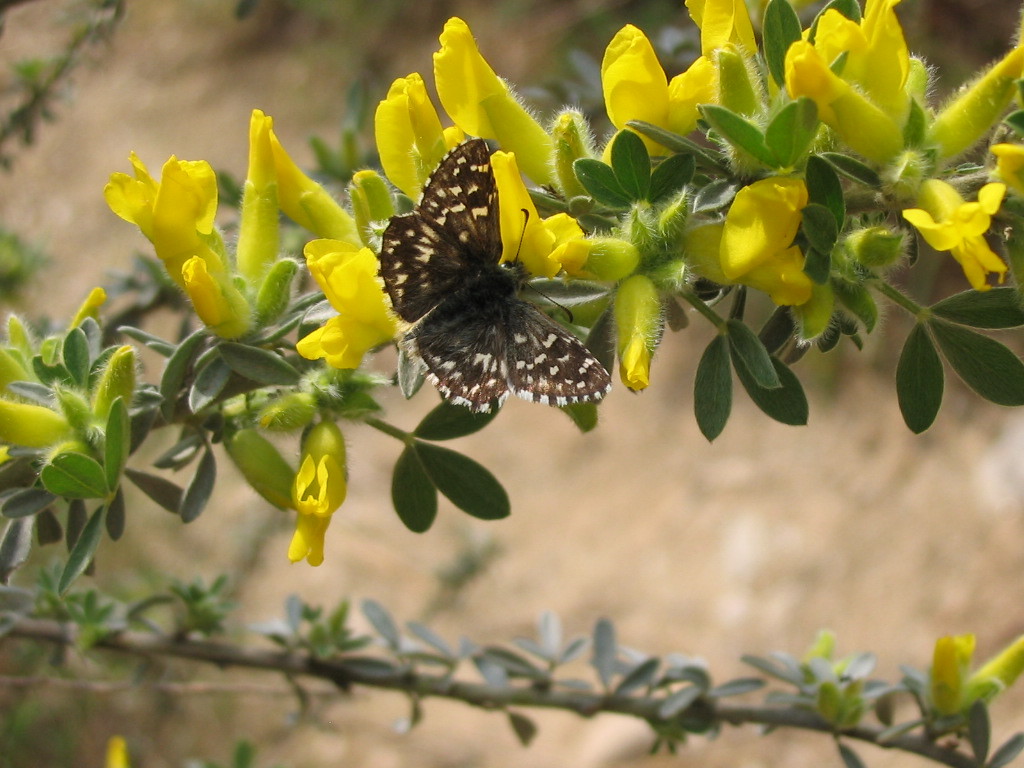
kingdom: Animalia
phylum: Arthropoda
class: Insecta
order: Lepidoptera
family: Hesperiidae
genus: Pyrgus
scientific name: Pyrgus malvae
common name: Grizzled skipper
